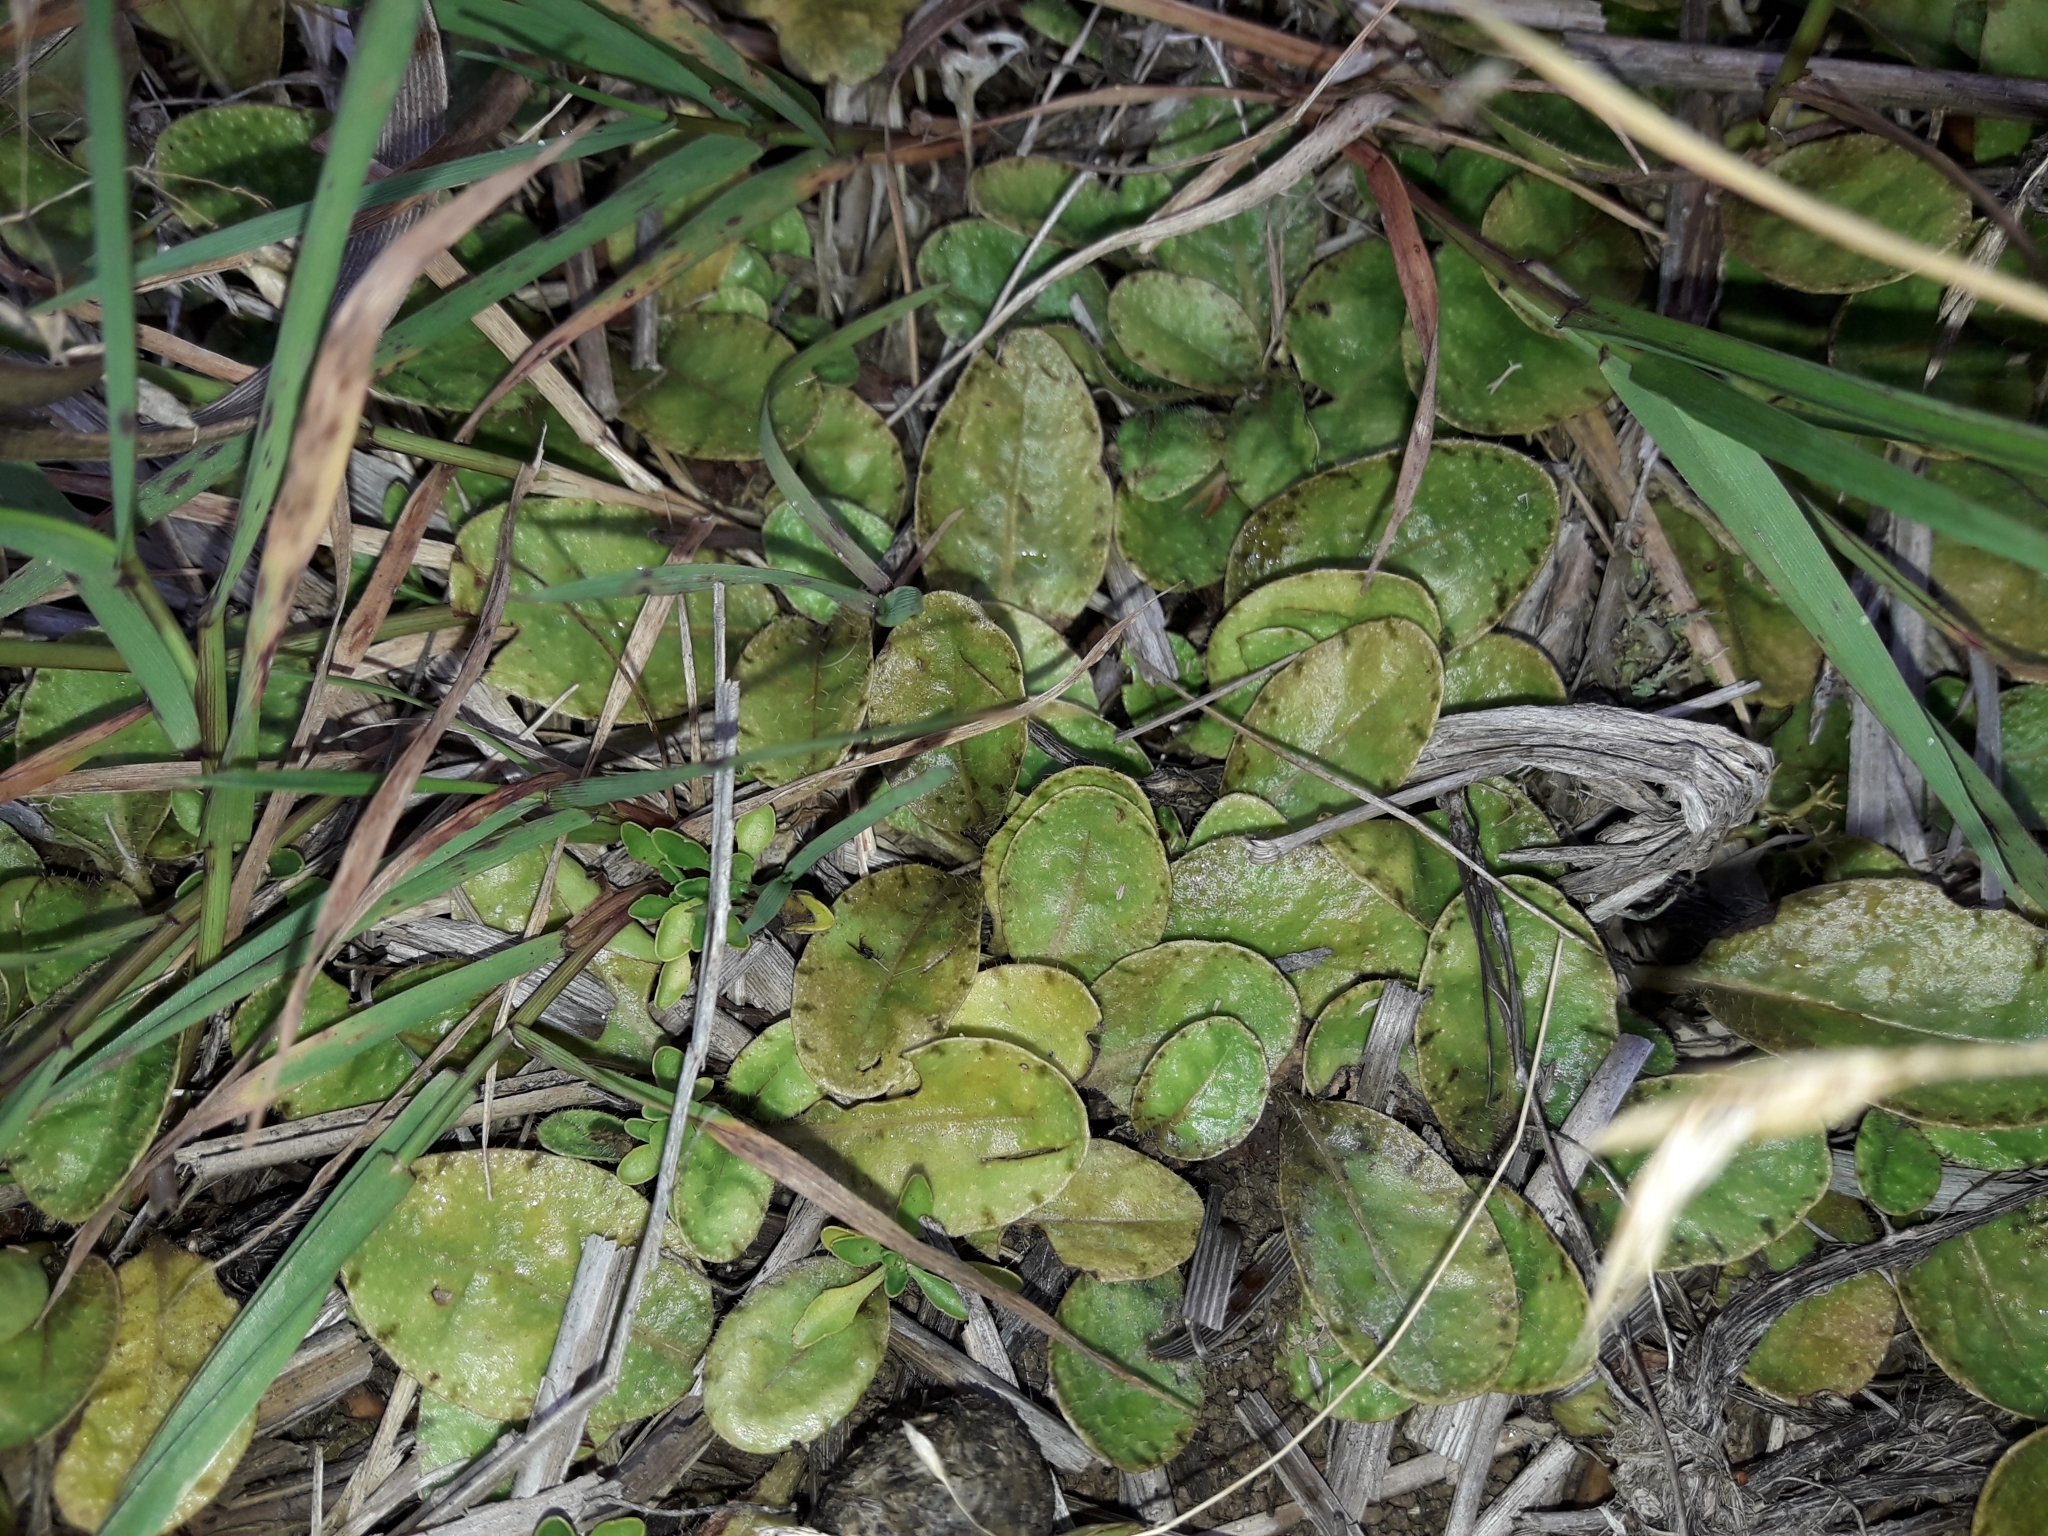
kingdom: Plantae
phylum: Tracheophyta
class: Magnoliopsida
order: Lamiales
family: Mazaceae
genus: Mazus
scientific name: Mazus radicans
